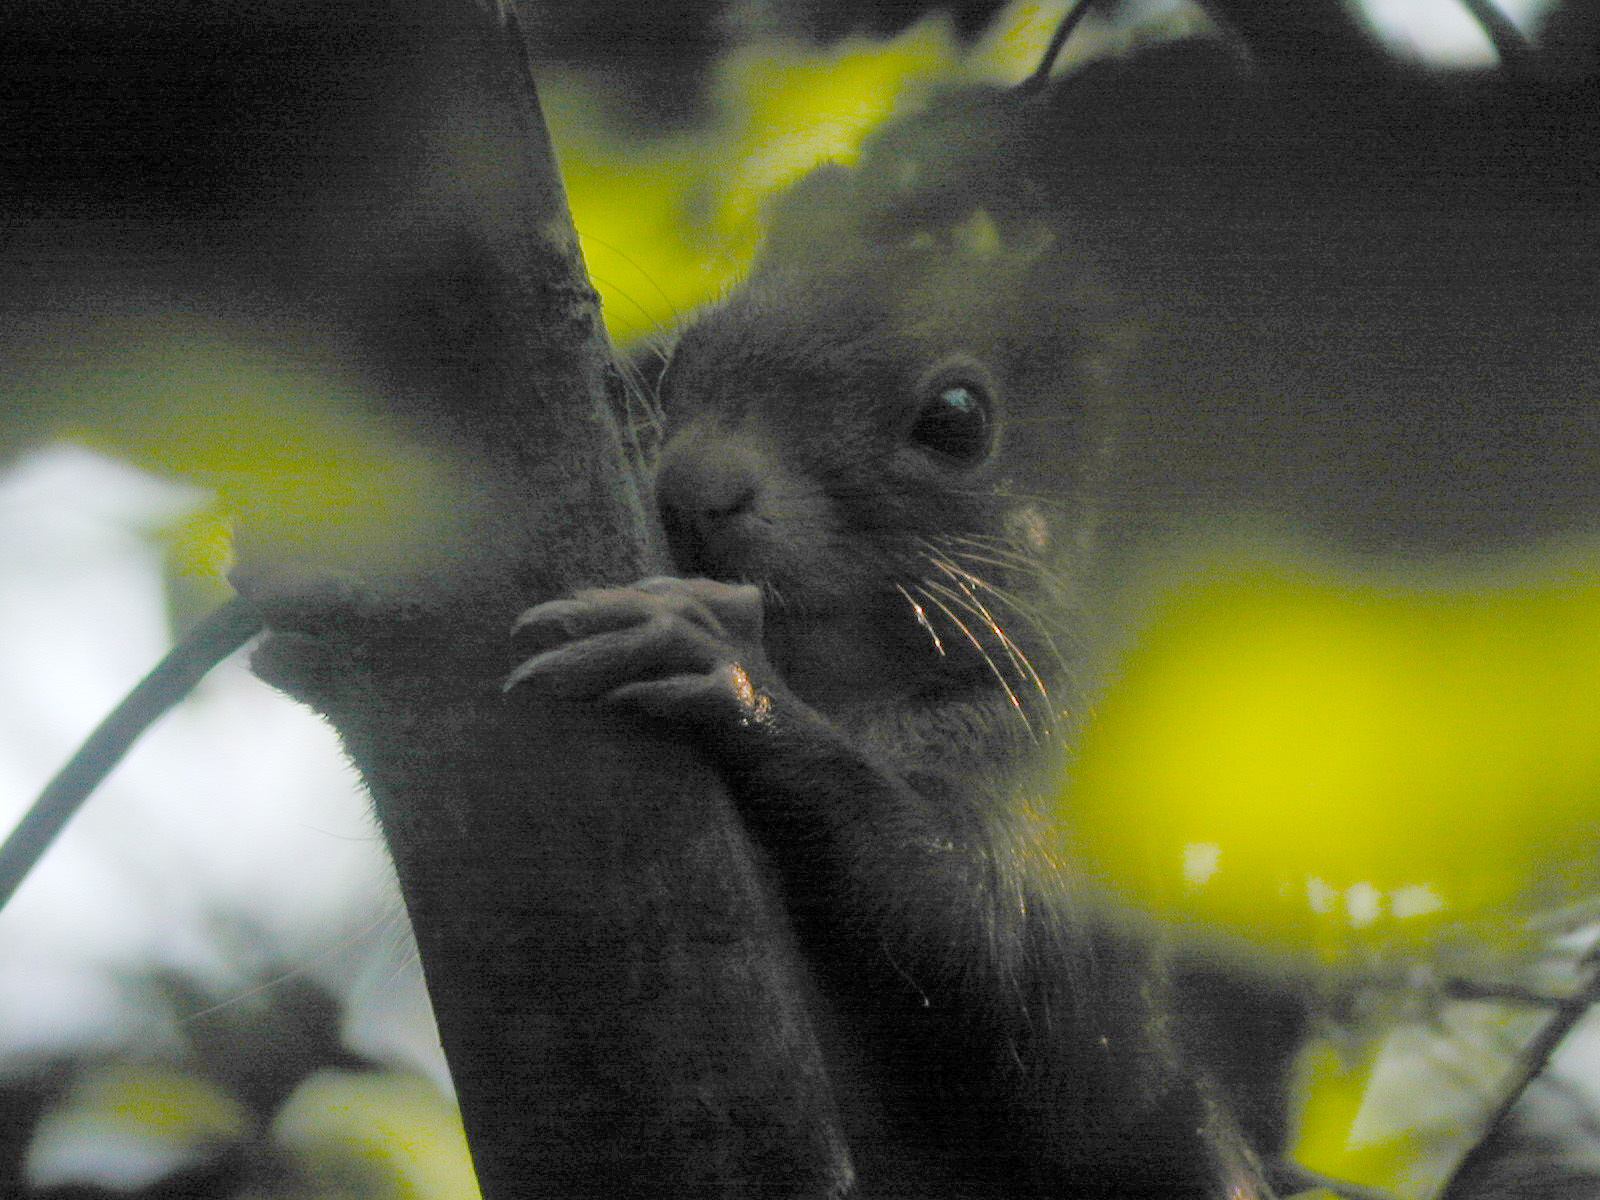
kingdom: Animalia
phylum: Chordata
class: Mammalia
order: Rodentia
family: Sciuridae
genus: Sciurus
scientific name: Sciurus vulgaris
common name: Eurasian red squirrel
